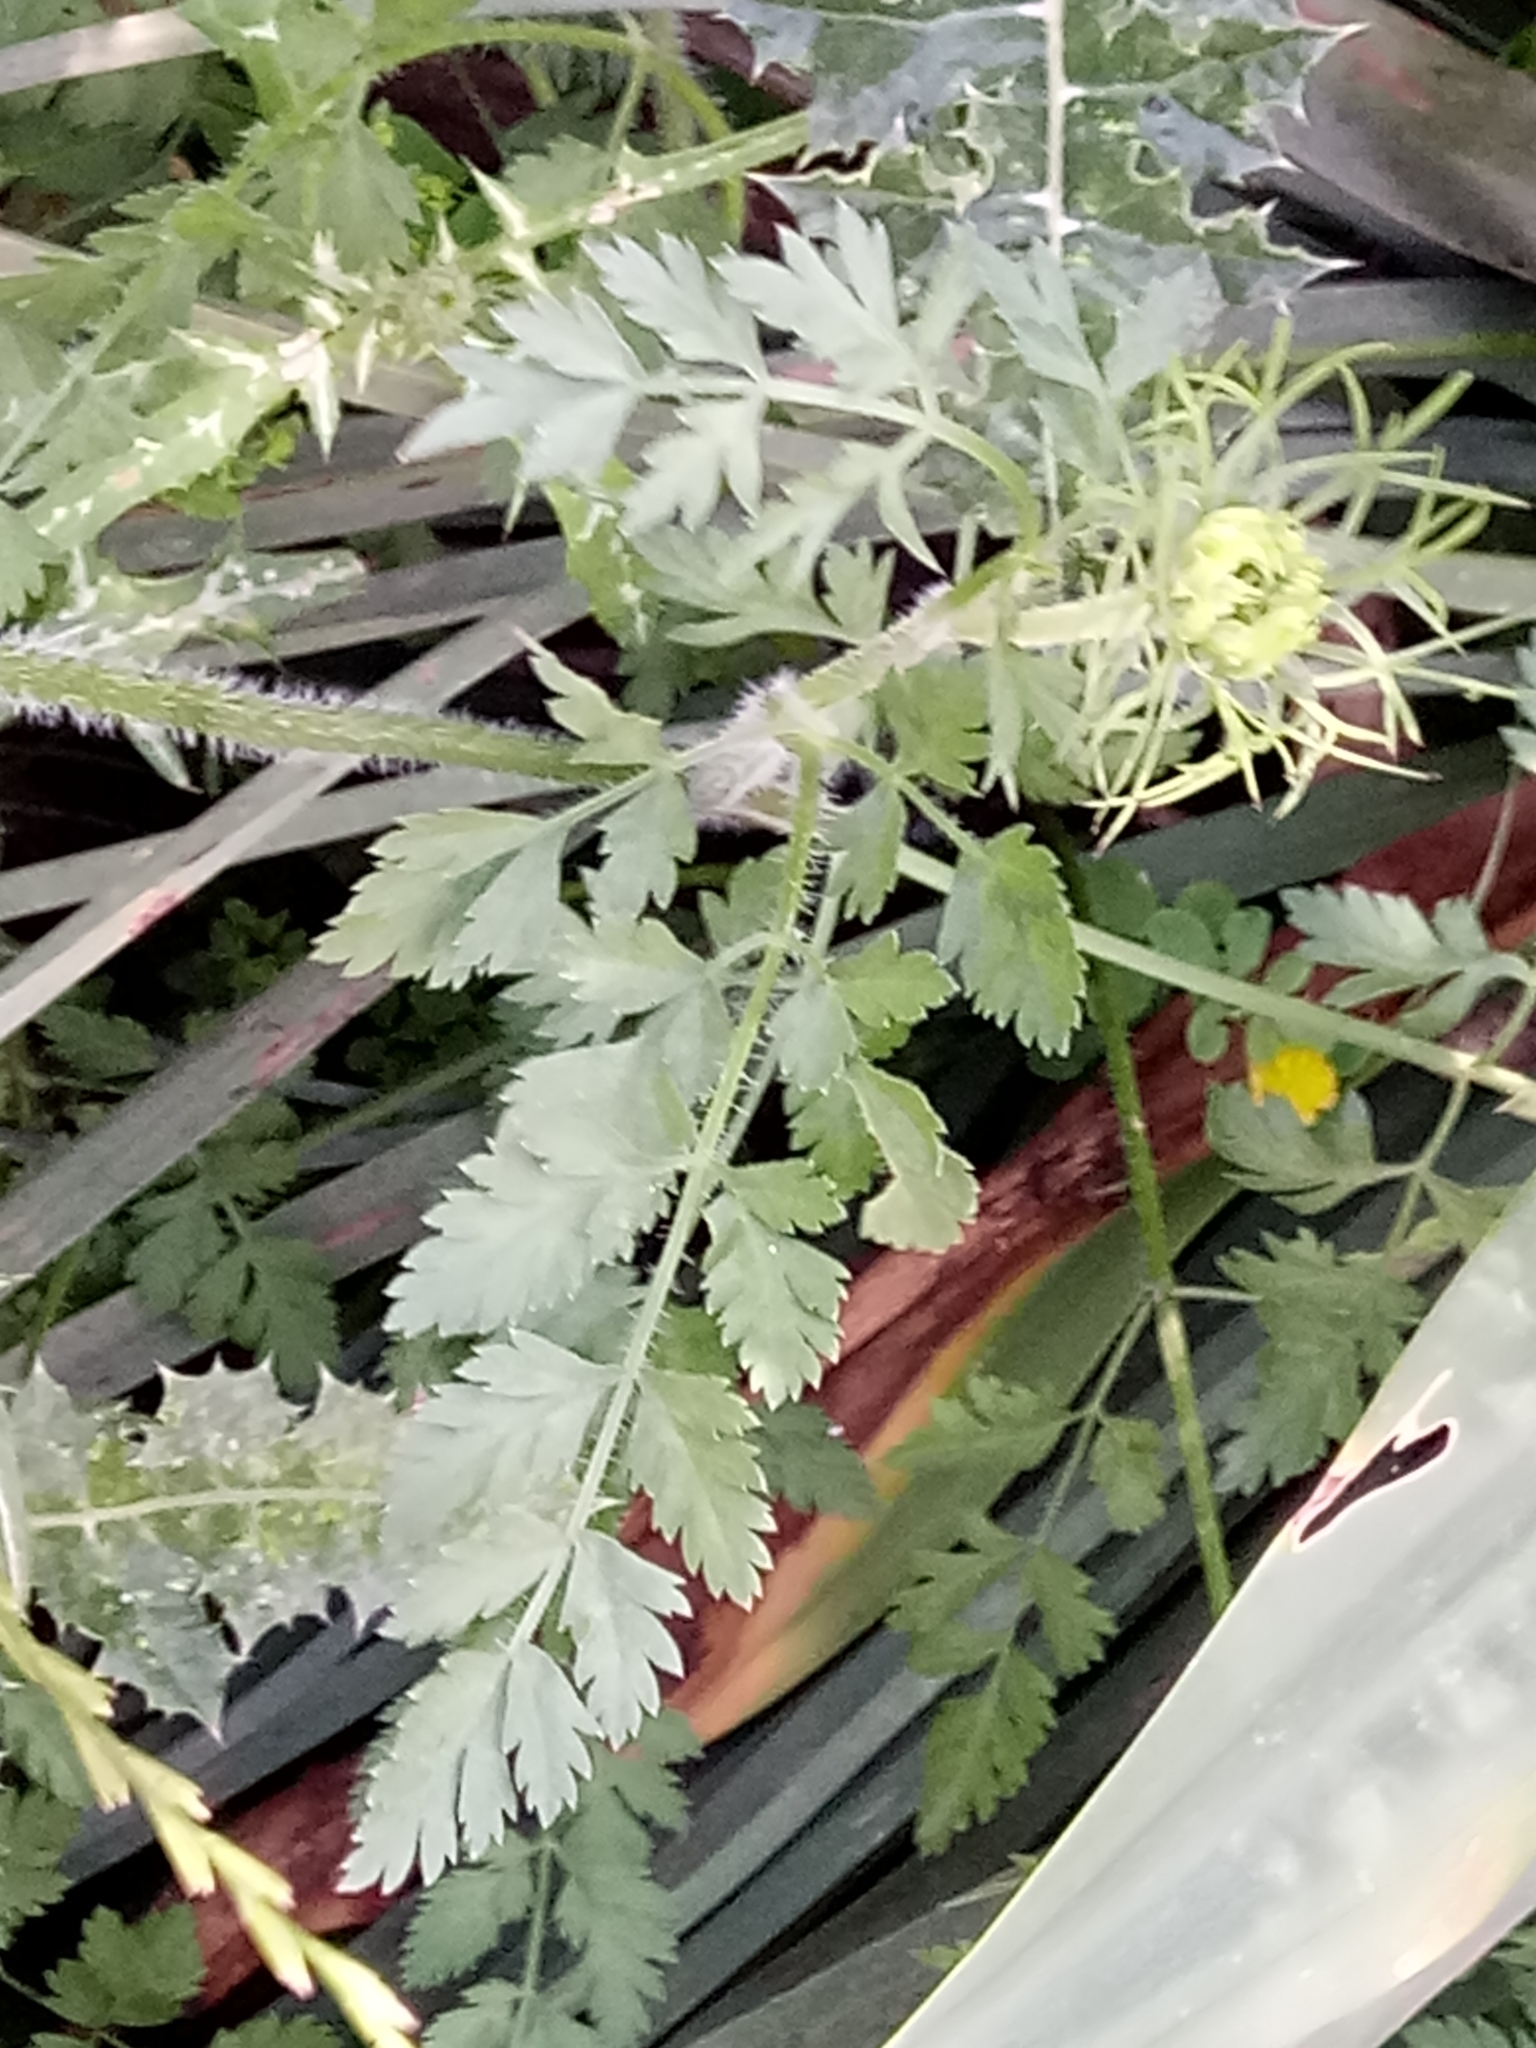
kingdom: Plantae
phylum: Tracheophyta
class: Magnoliopsida
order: Apiales
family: Apiaceae
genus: Daucus
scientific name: Daucus carota
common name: Wild carrot
